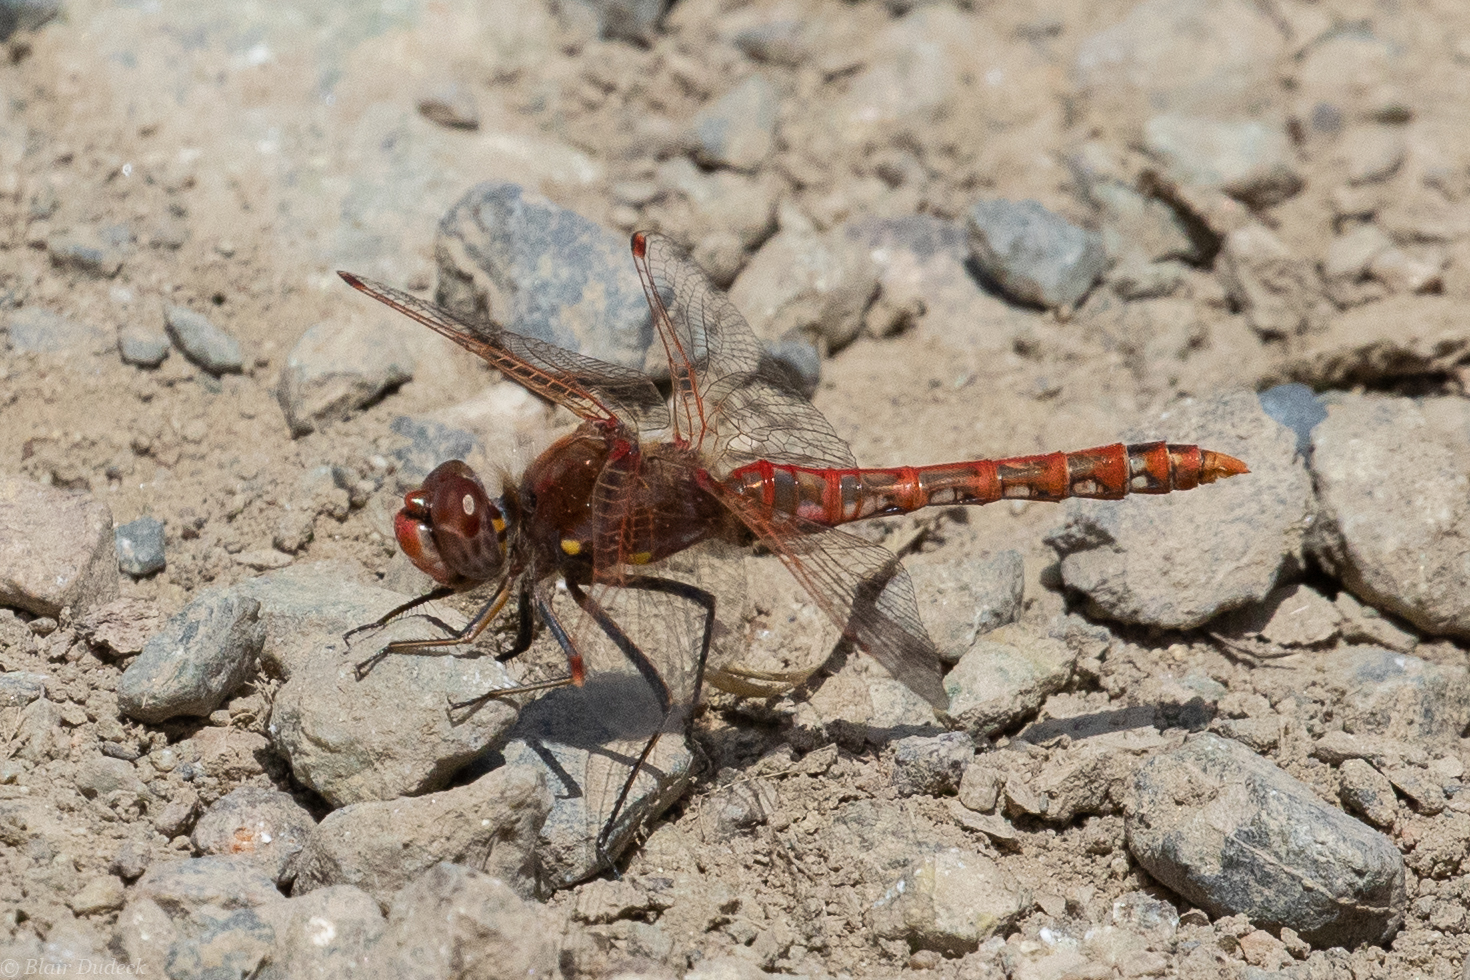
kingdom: Animalia
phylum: Arthropoda
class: Insecta
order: Odonata
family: Libellulidae
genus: Sympetrum
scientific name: Sympetrum corruptum
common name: Variegated meadowhawk
